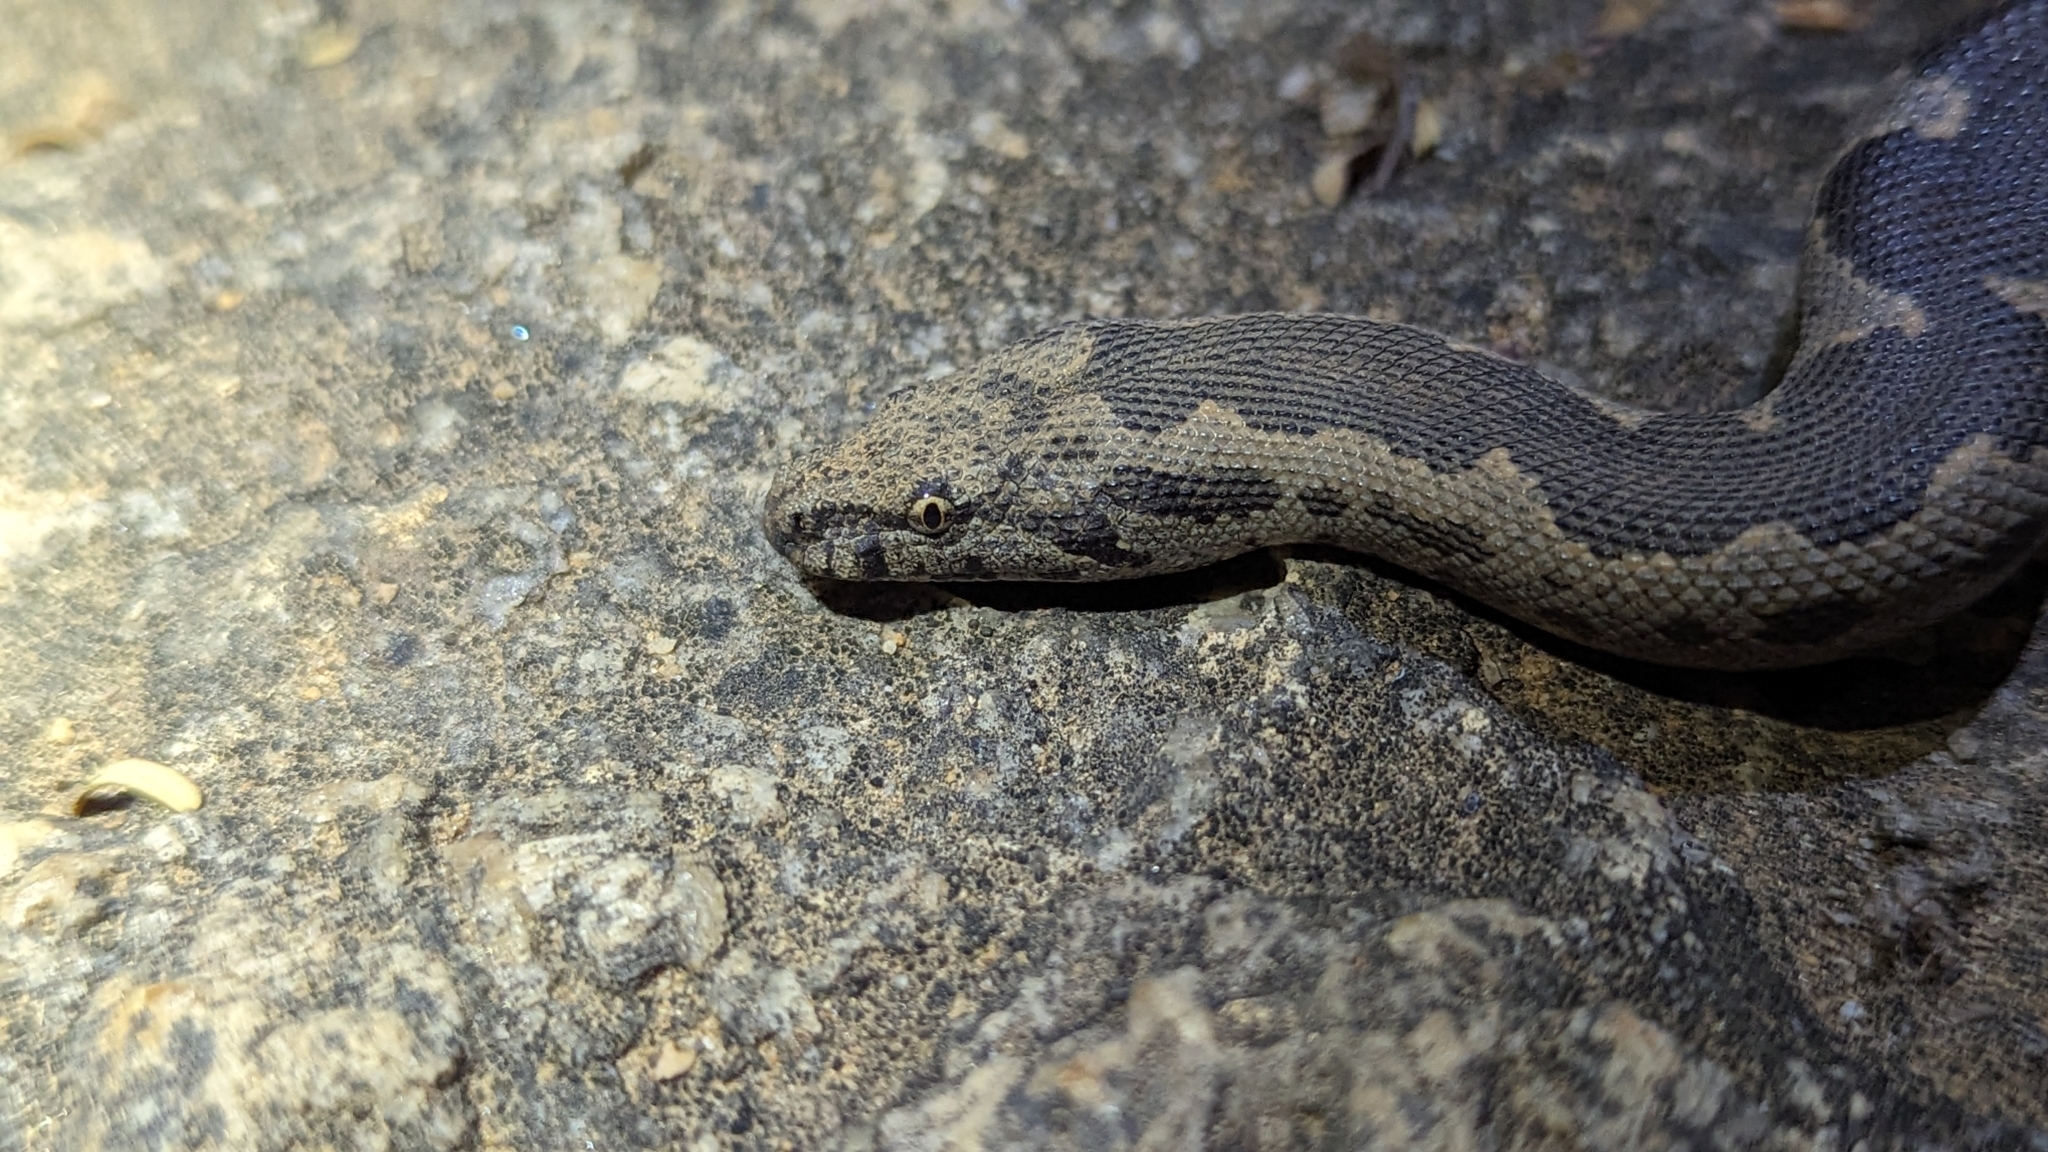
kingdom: Animalia
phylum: Chordata
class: Squamata
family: Boidae
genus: Eryx
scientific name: Eryx conicus
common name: Rough-tailed sand boa
